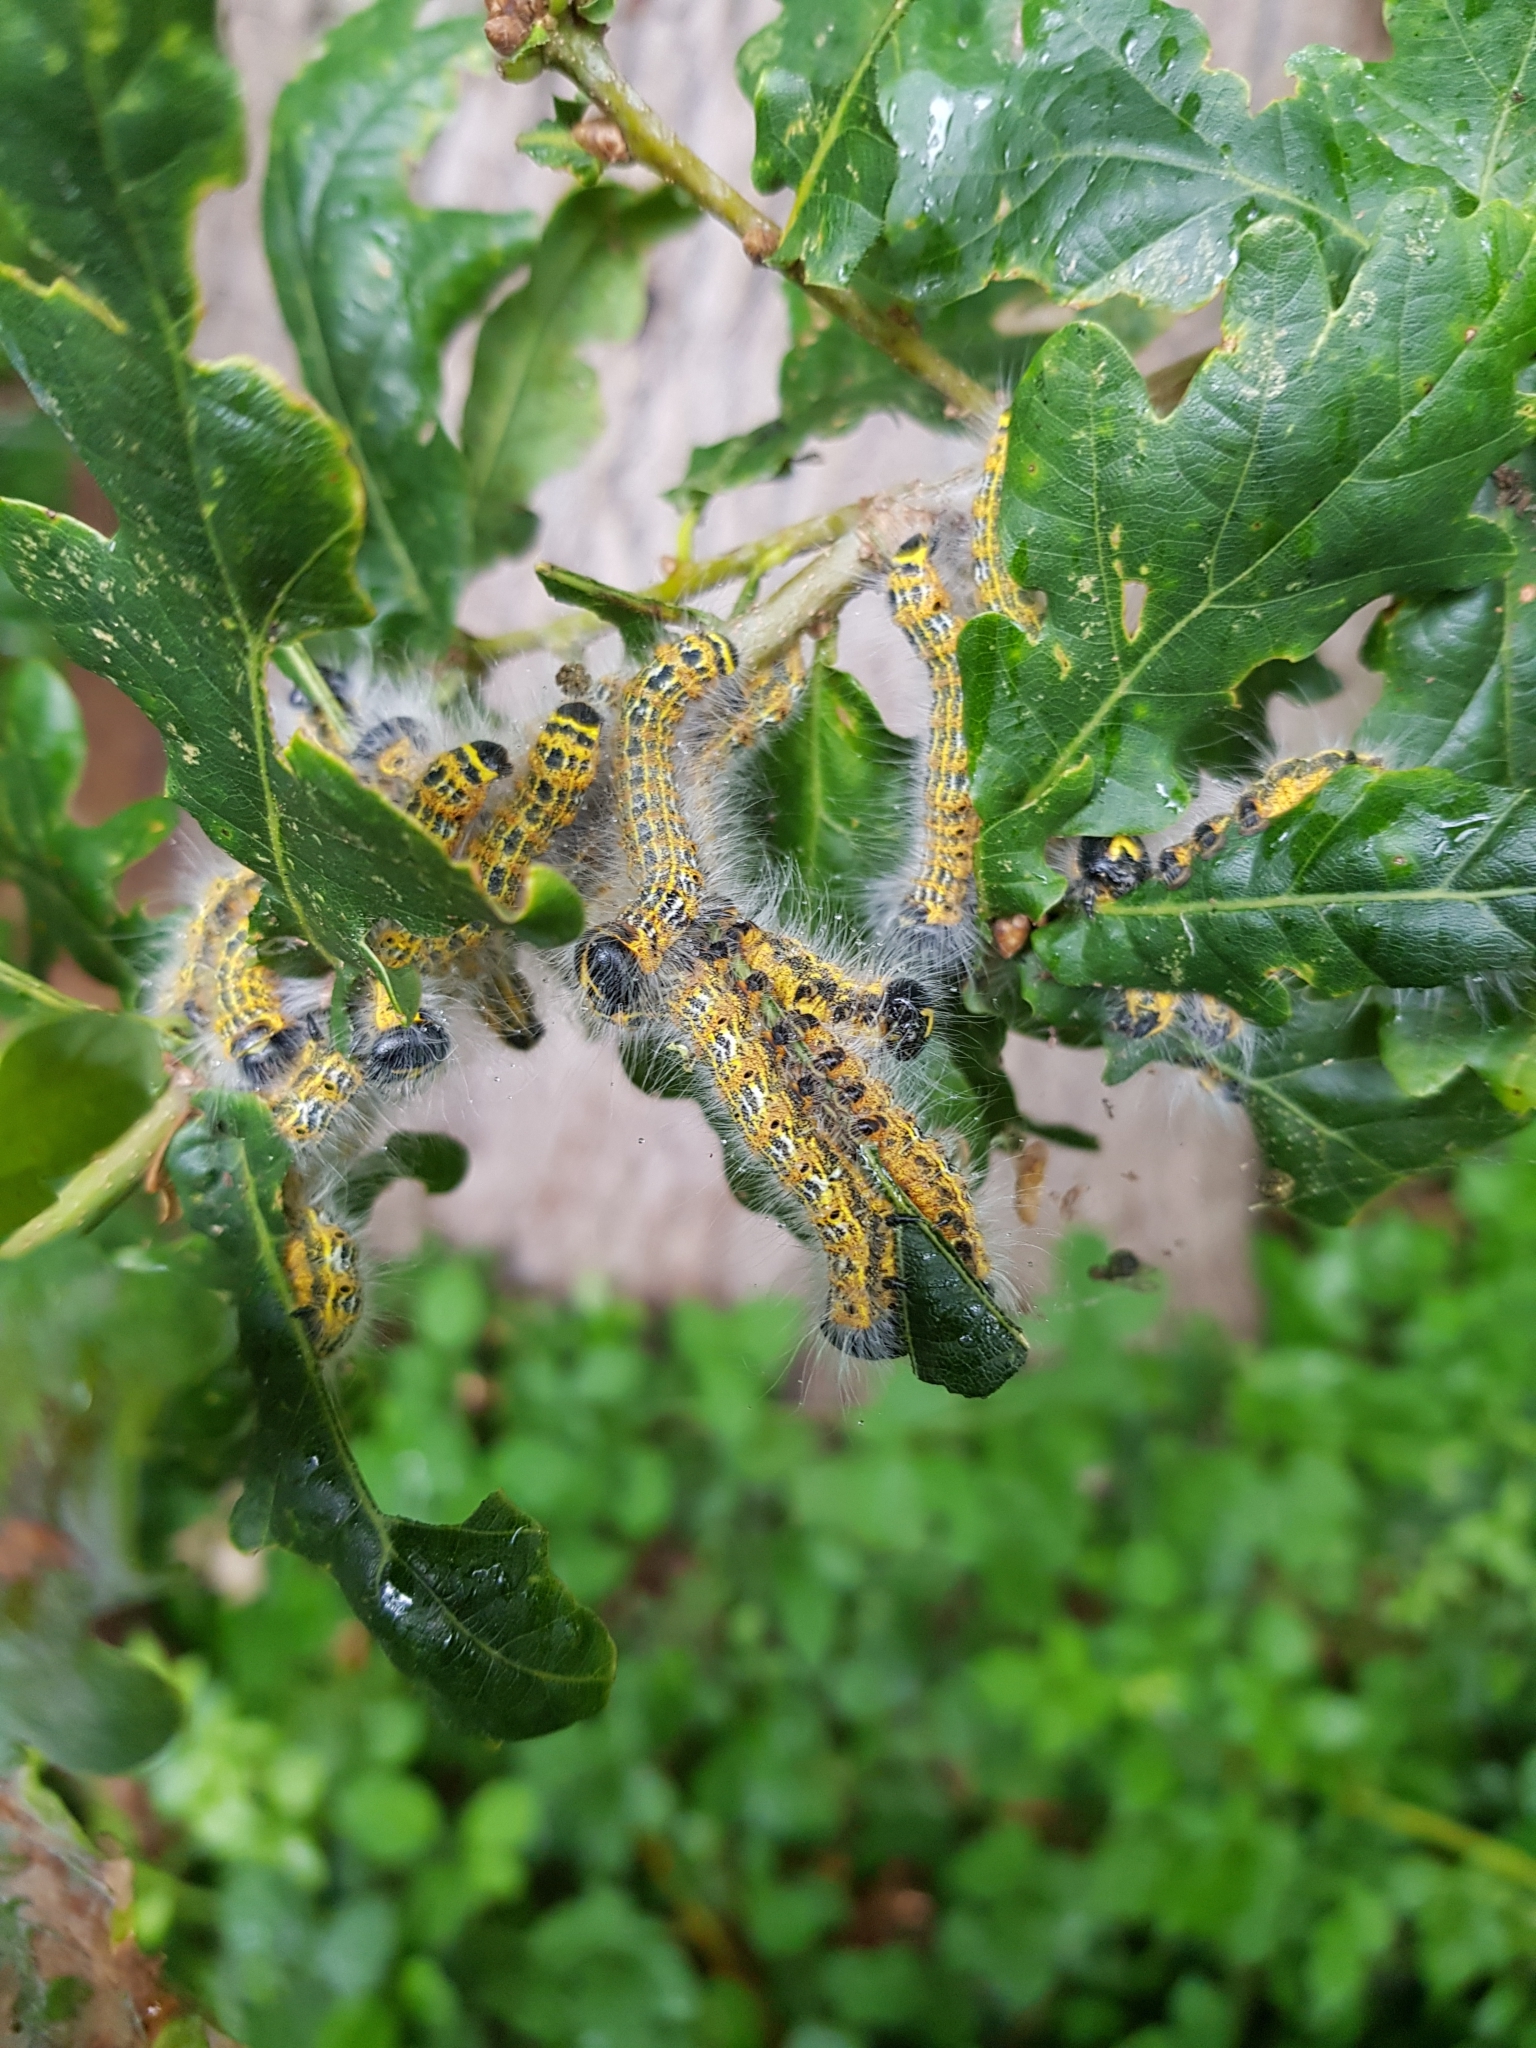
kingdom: Animalia
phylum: Arthropoda
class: Insecta
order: Lepidoptera
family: Notodontidae
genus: Phalera
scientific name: Phalera bucephala
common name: Buff-tip
